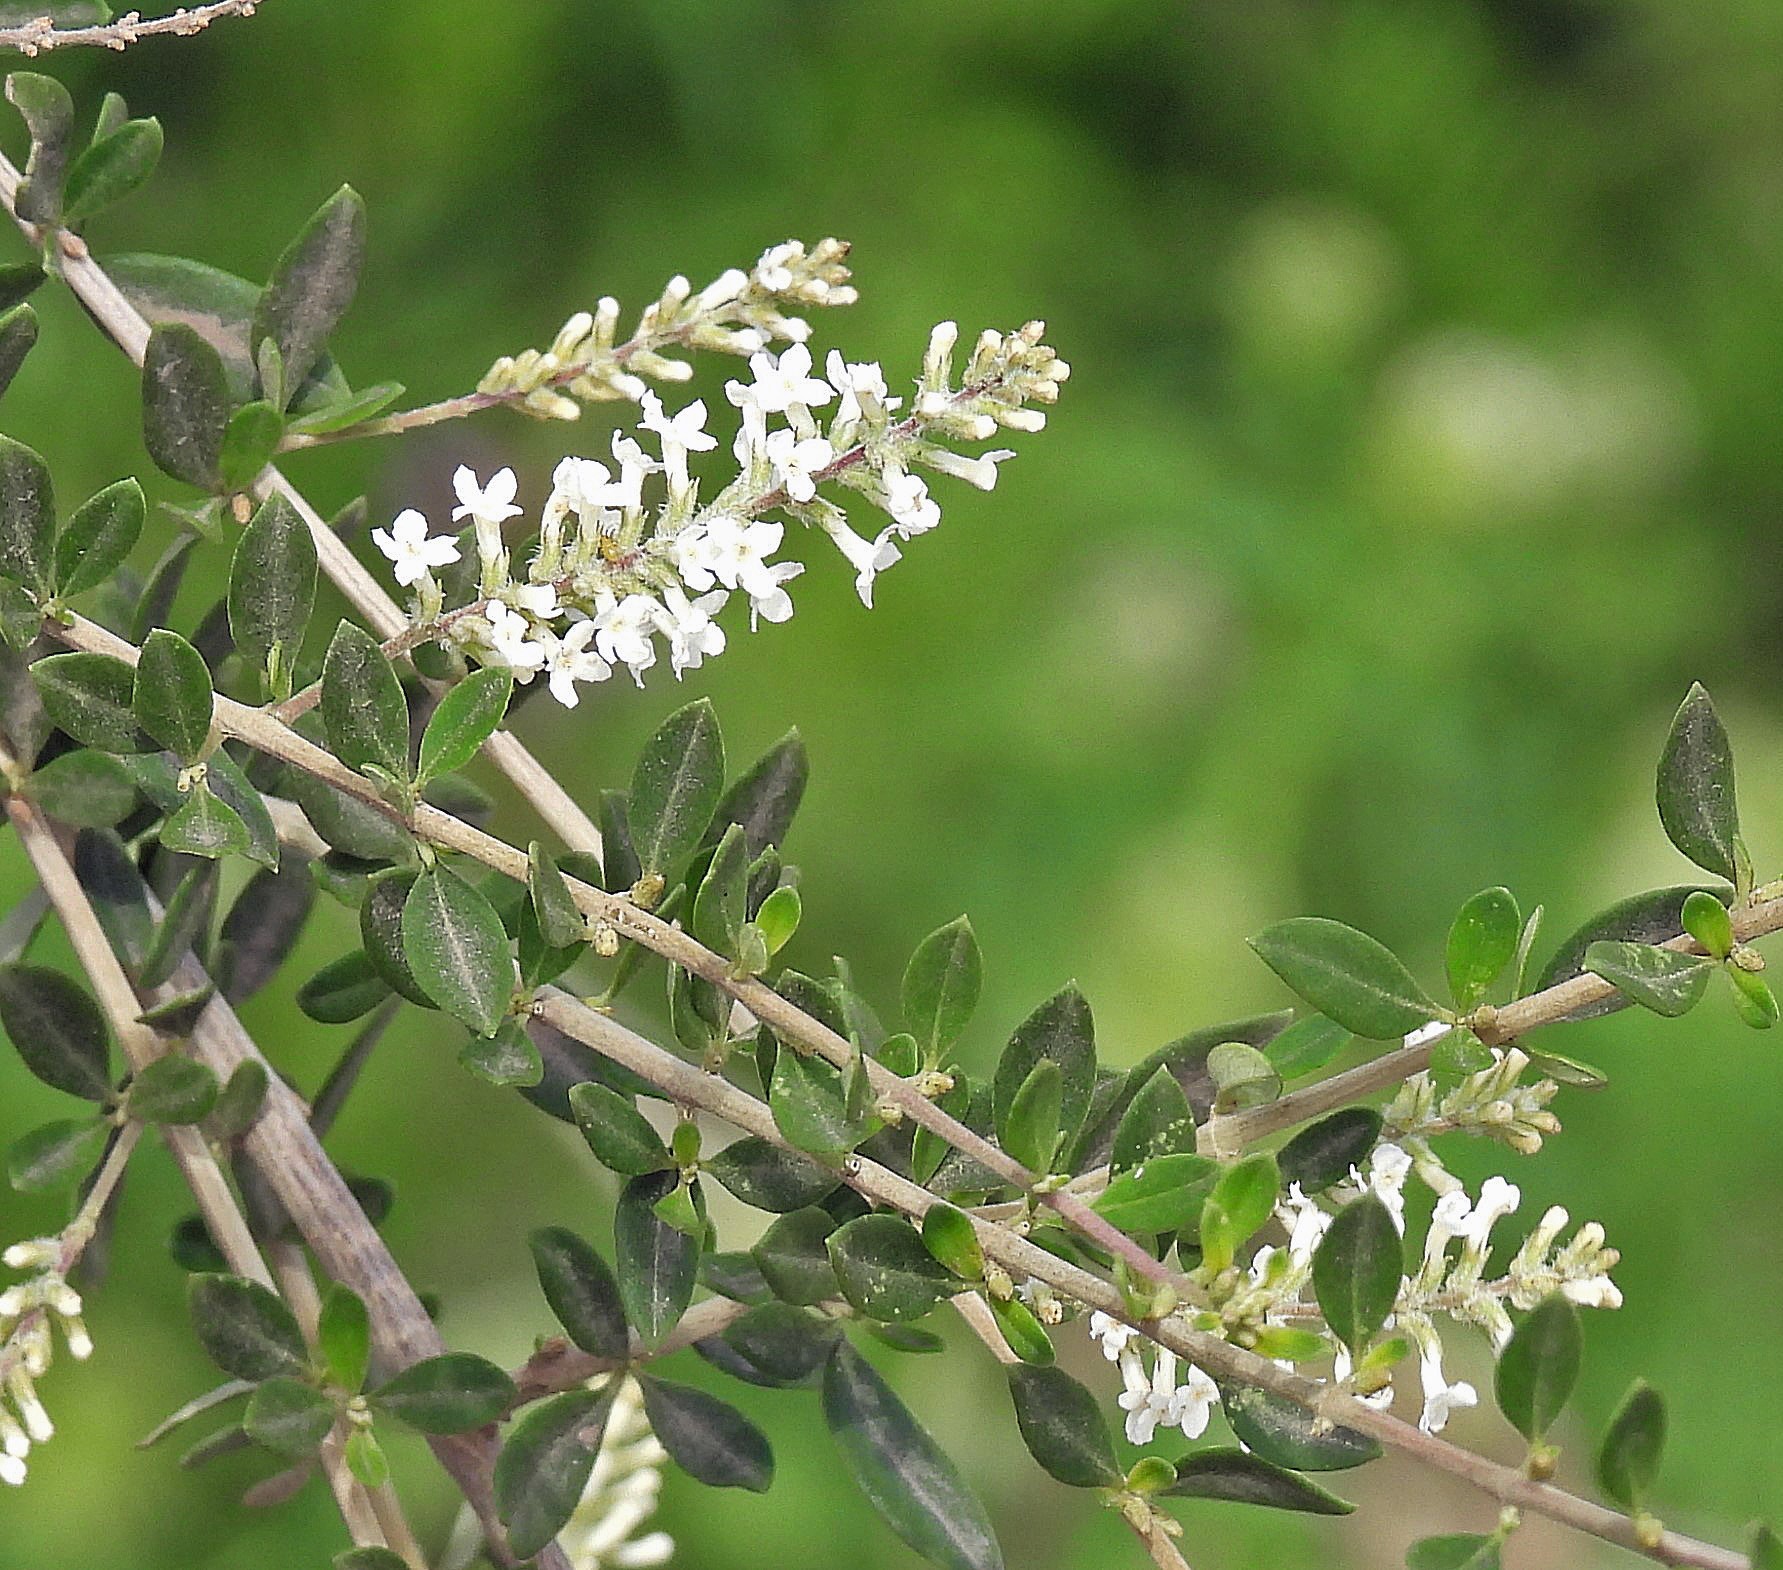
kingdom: Plantae
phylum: Tracheophyta
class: Magnoliopsida
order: Lamiales
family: Verbenaceae
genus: Aloysia
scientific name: Aloysia gratissima
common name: Common bee-brush
